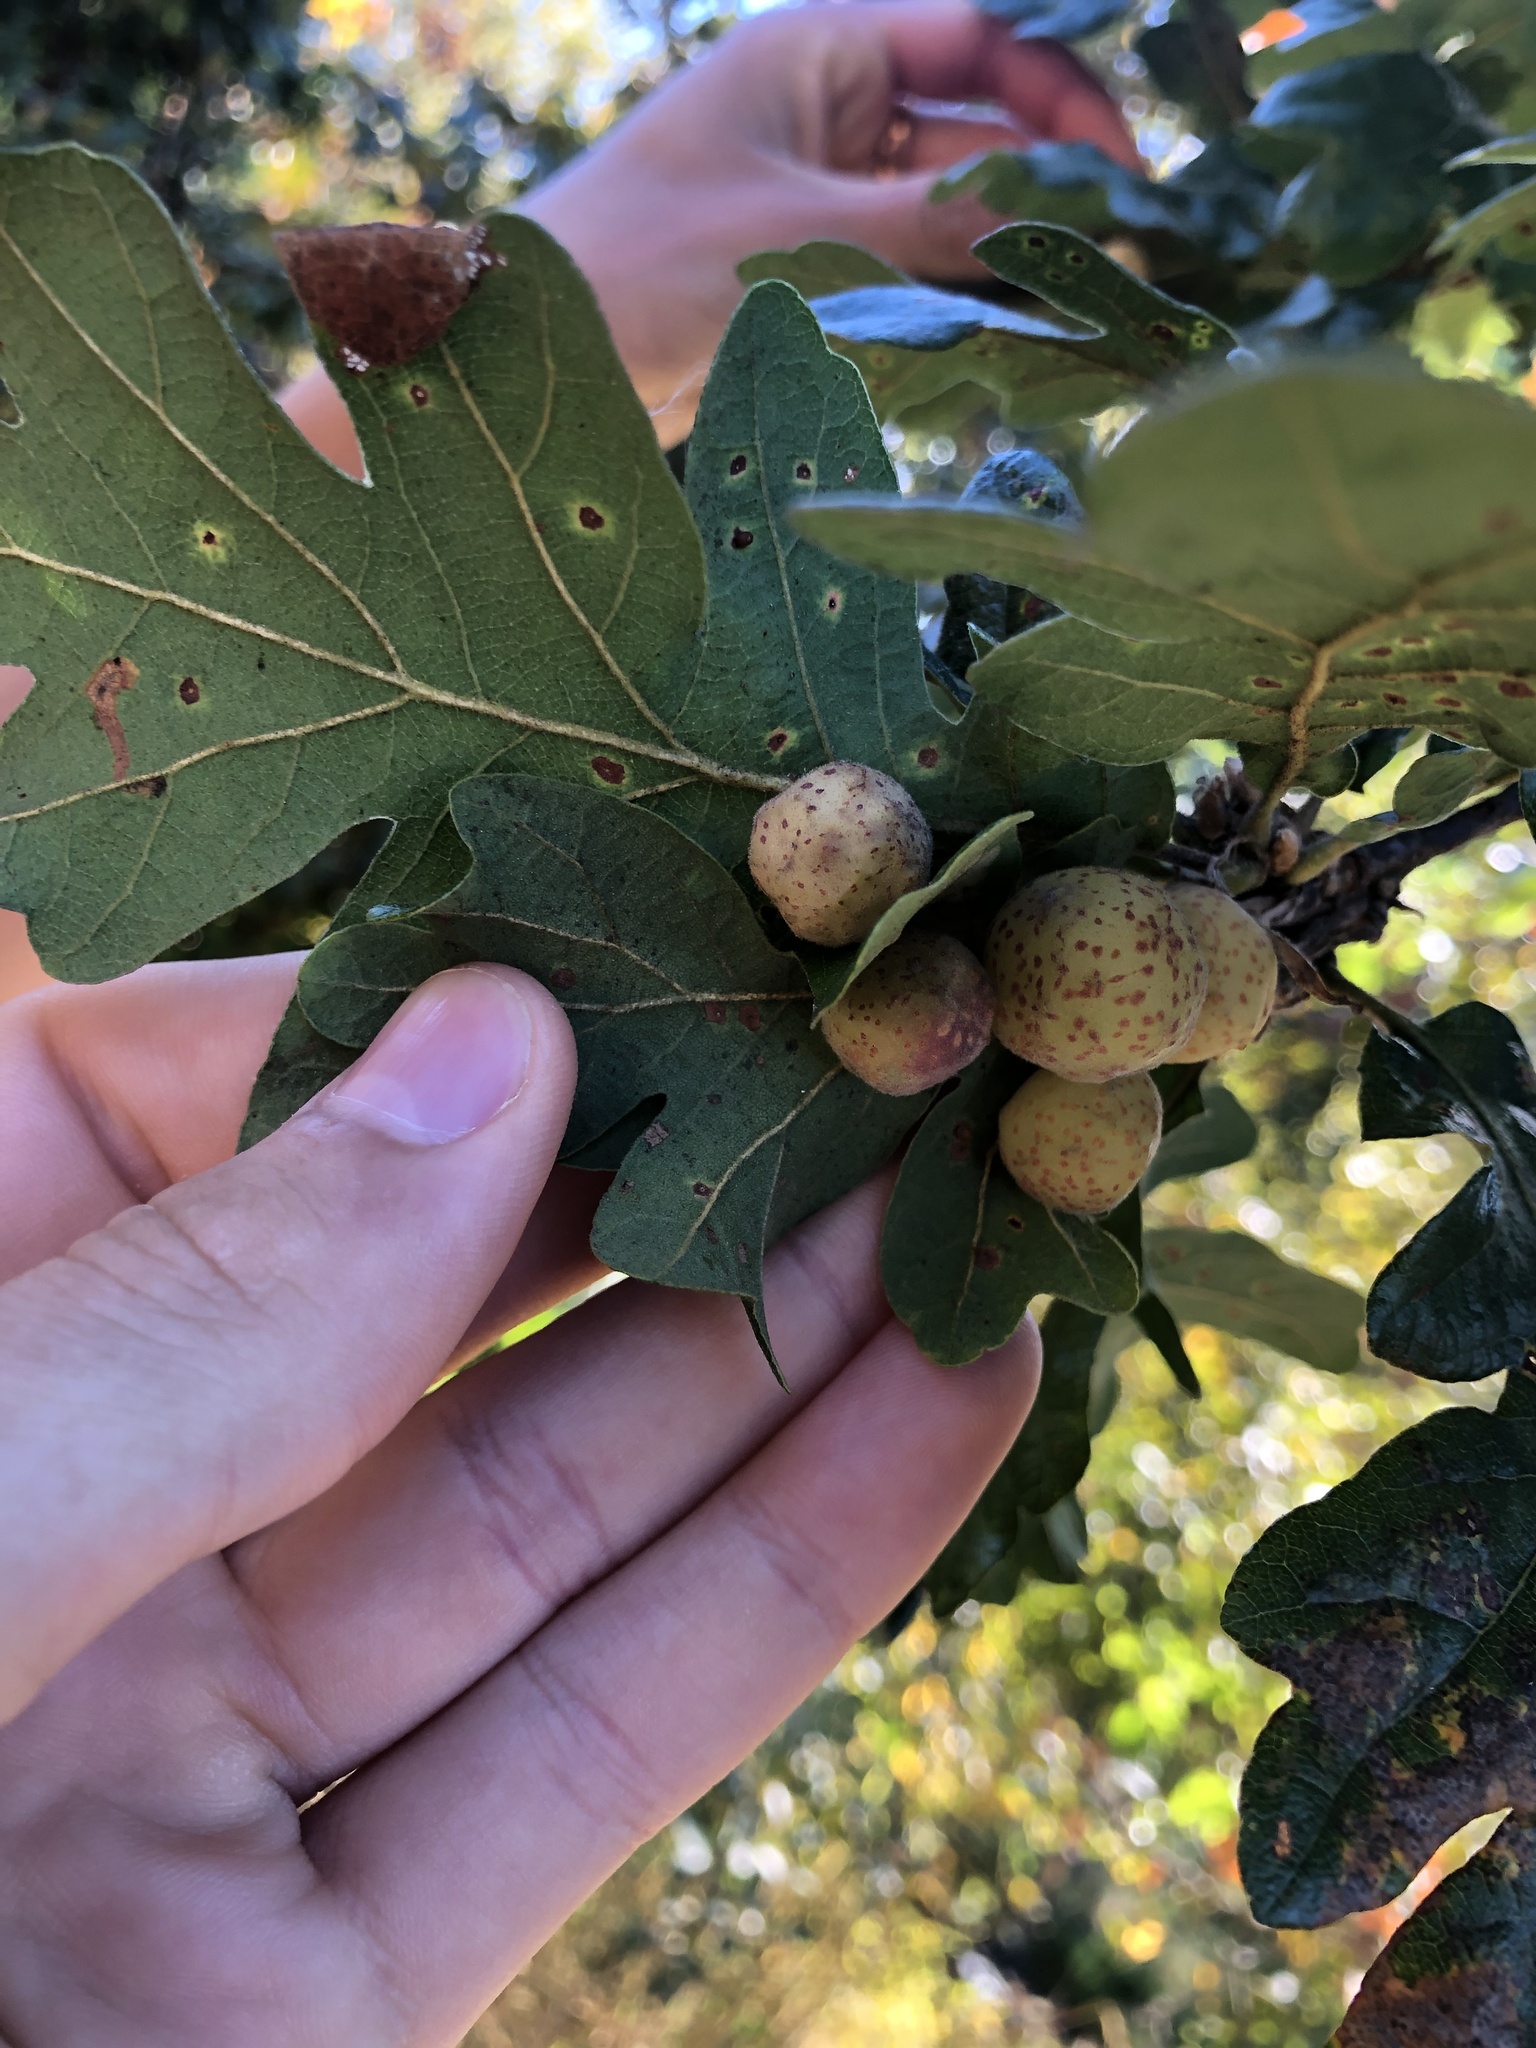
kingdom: Animalia
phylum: Arthropoda
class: Insecta
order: Hymenoptera
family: Cynipidae
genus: Cynips
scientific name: Cynips
